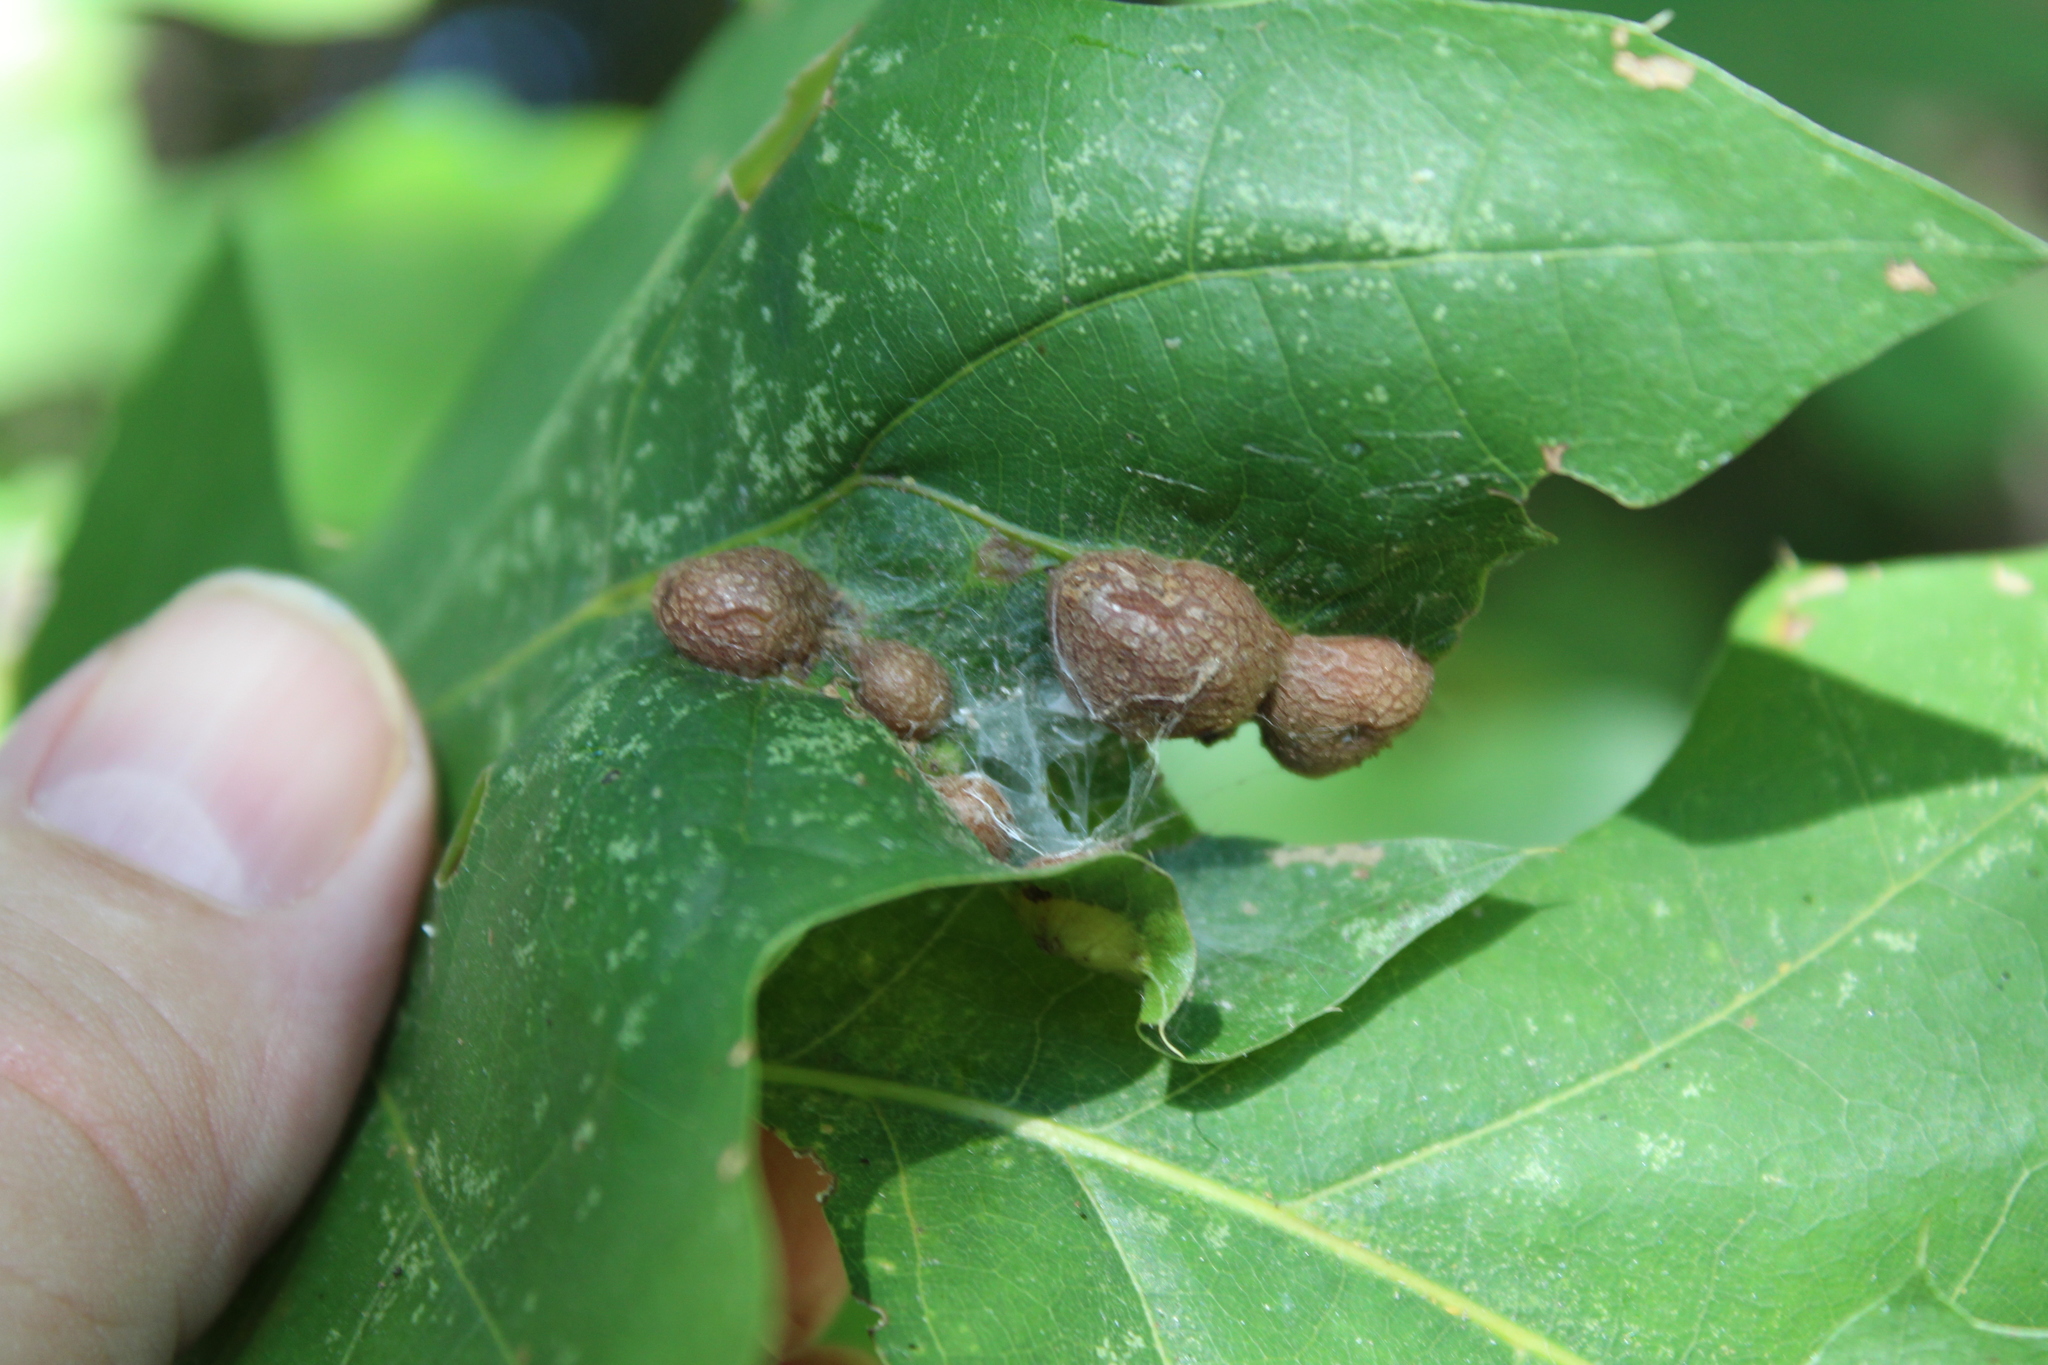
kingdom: Animalia
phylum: Arthropoda
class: Insecta
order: Diptera
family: Cecidomyiidae
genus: Polystepha
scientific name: Polystepha pilulae
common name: Oak leaf gall midge
